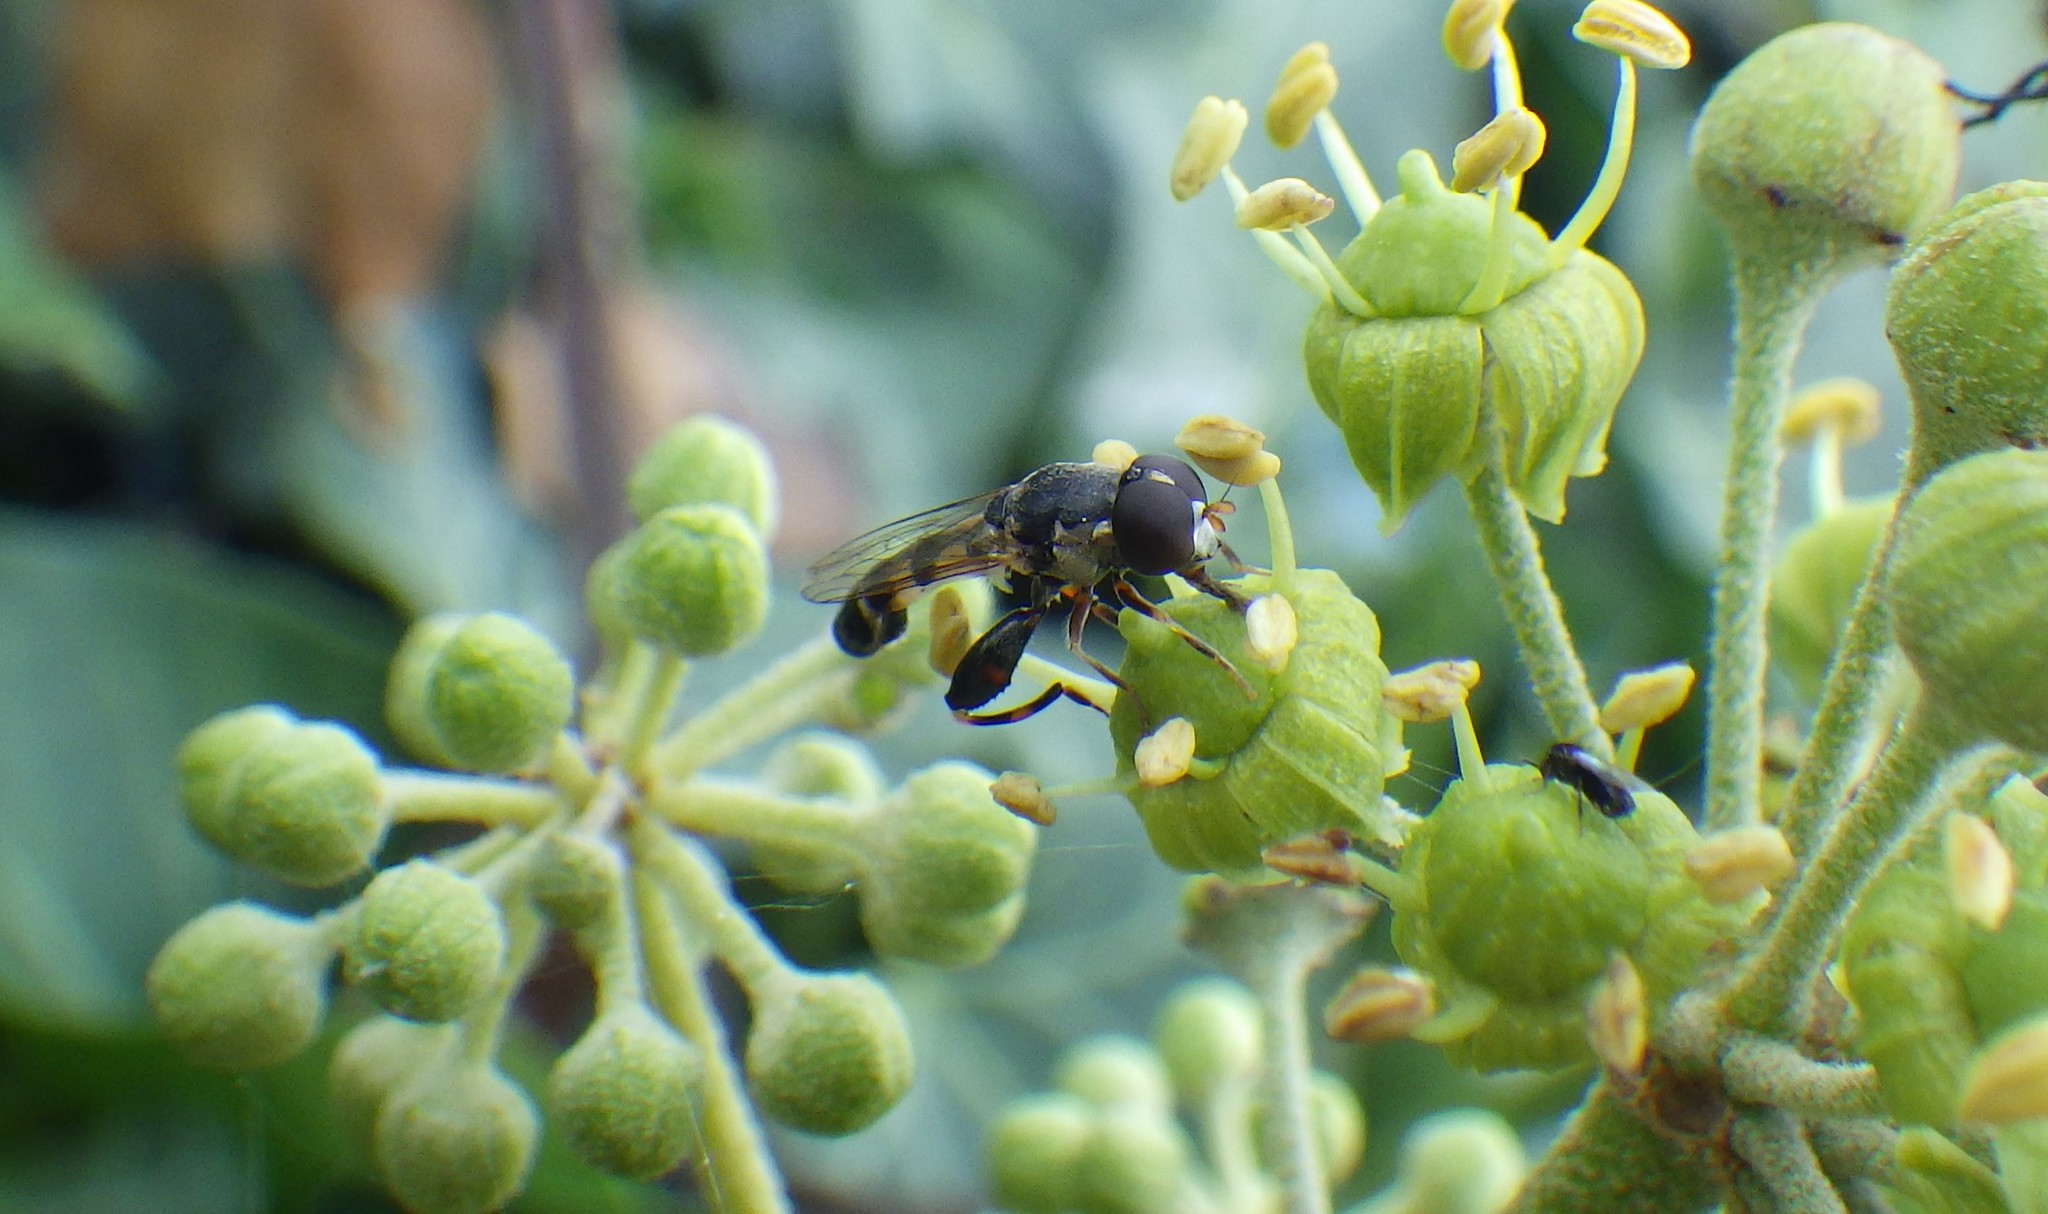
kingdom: Animalia
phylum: Arthropoda
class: Insecta
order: Diptera
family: Syrphidae
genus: Syritta
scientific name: Syritta pipiens
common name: Hover fly
